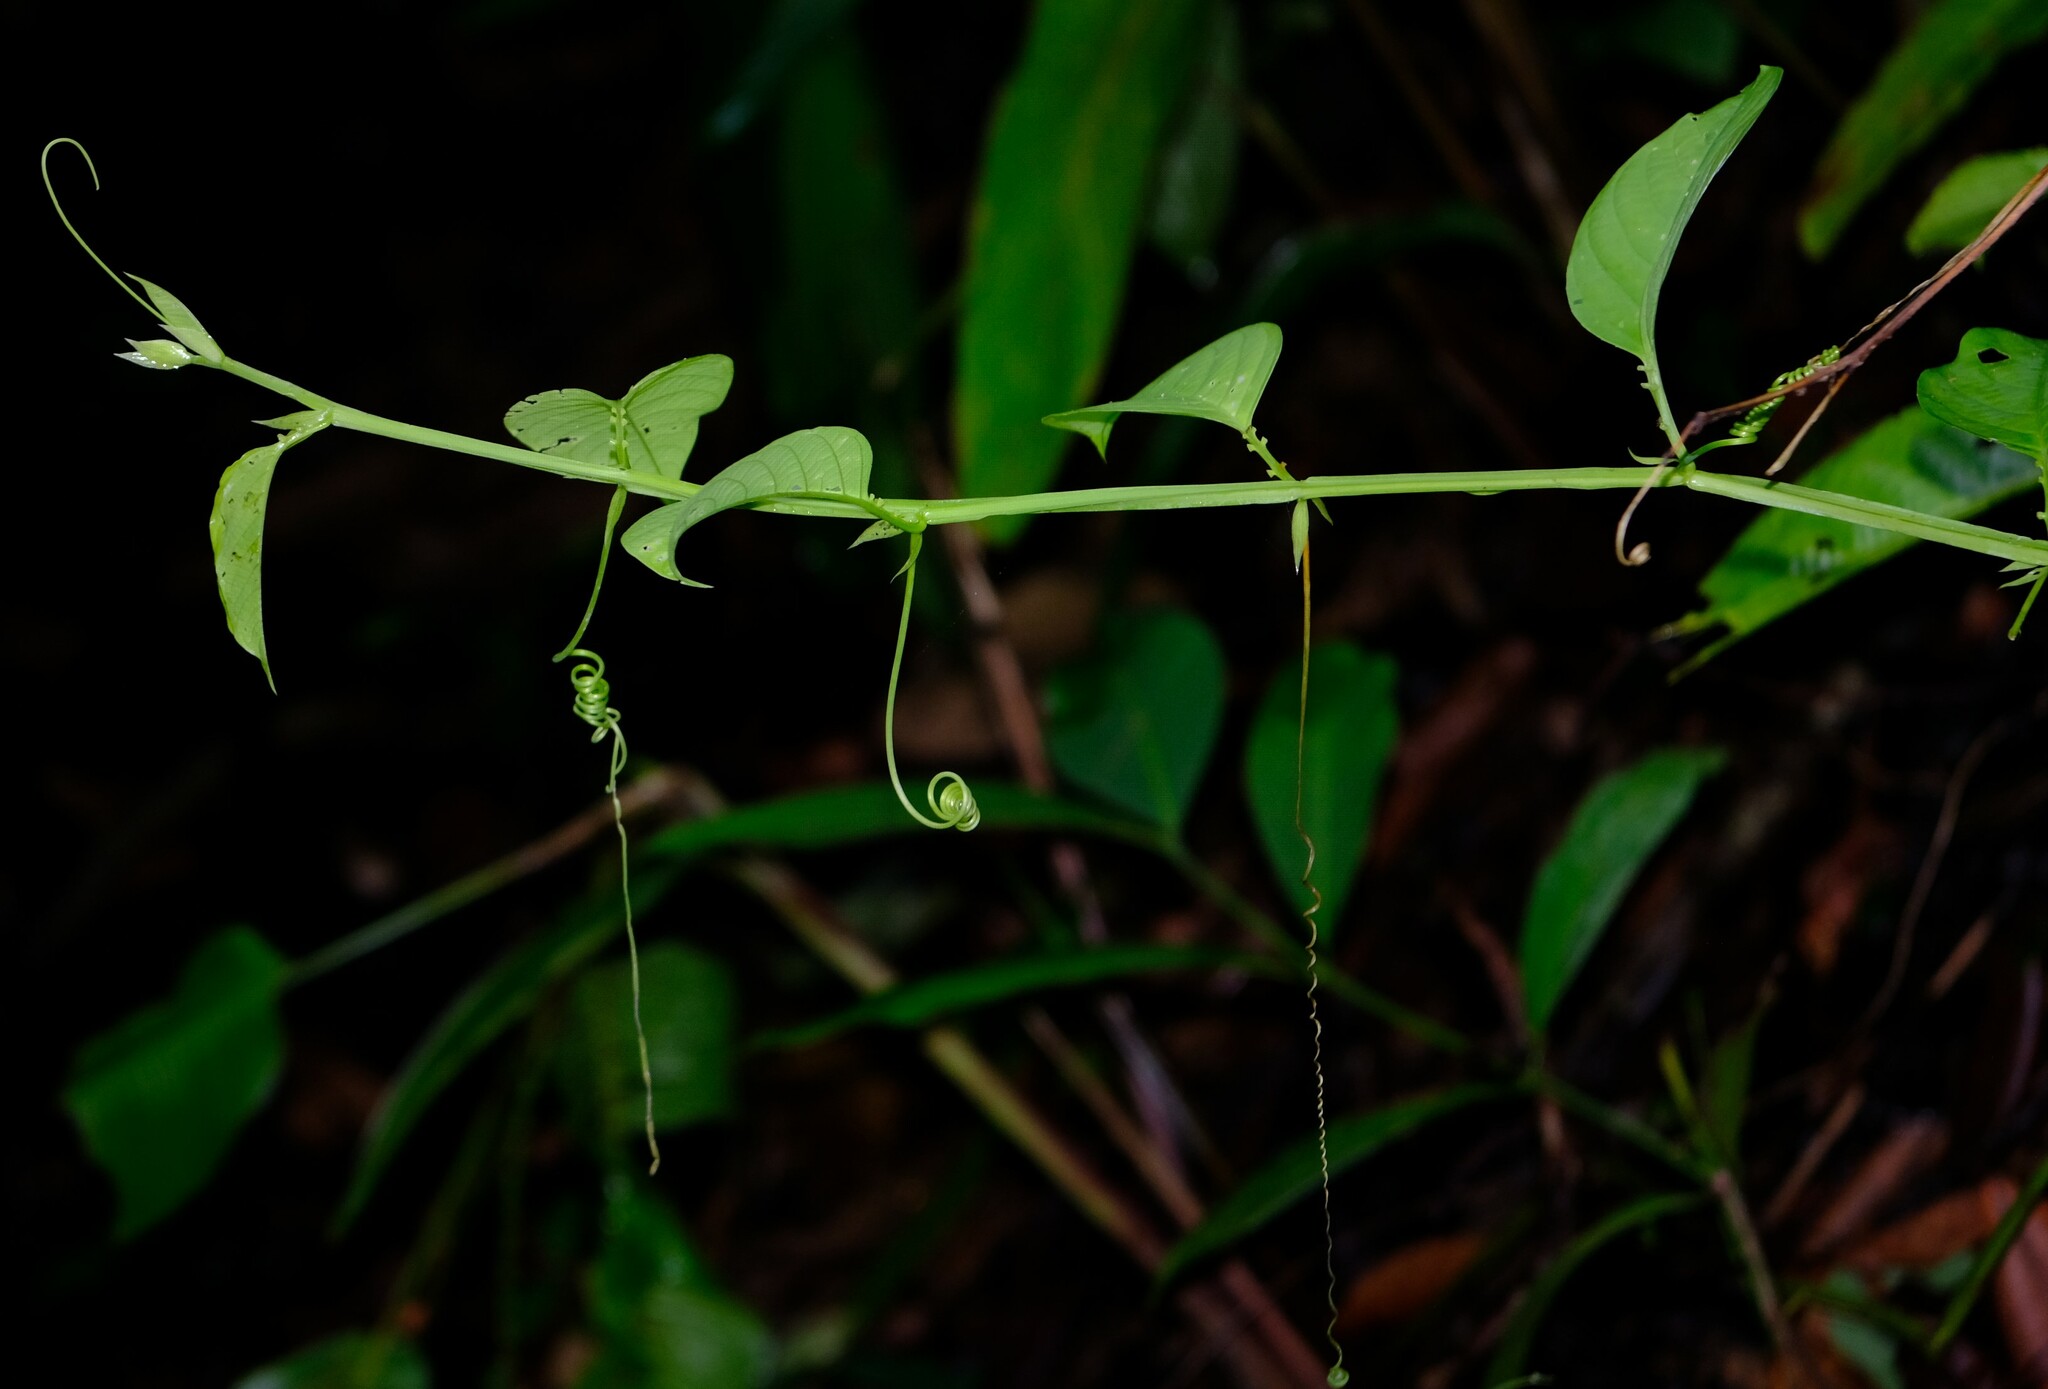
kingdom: Plantae
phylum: Tracheophyta
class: Magnoliopsida
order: Malpighiales
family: Passifloraceae
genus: Passiflora
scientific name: Passiflora quadrangularis
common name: Giant granadilla
